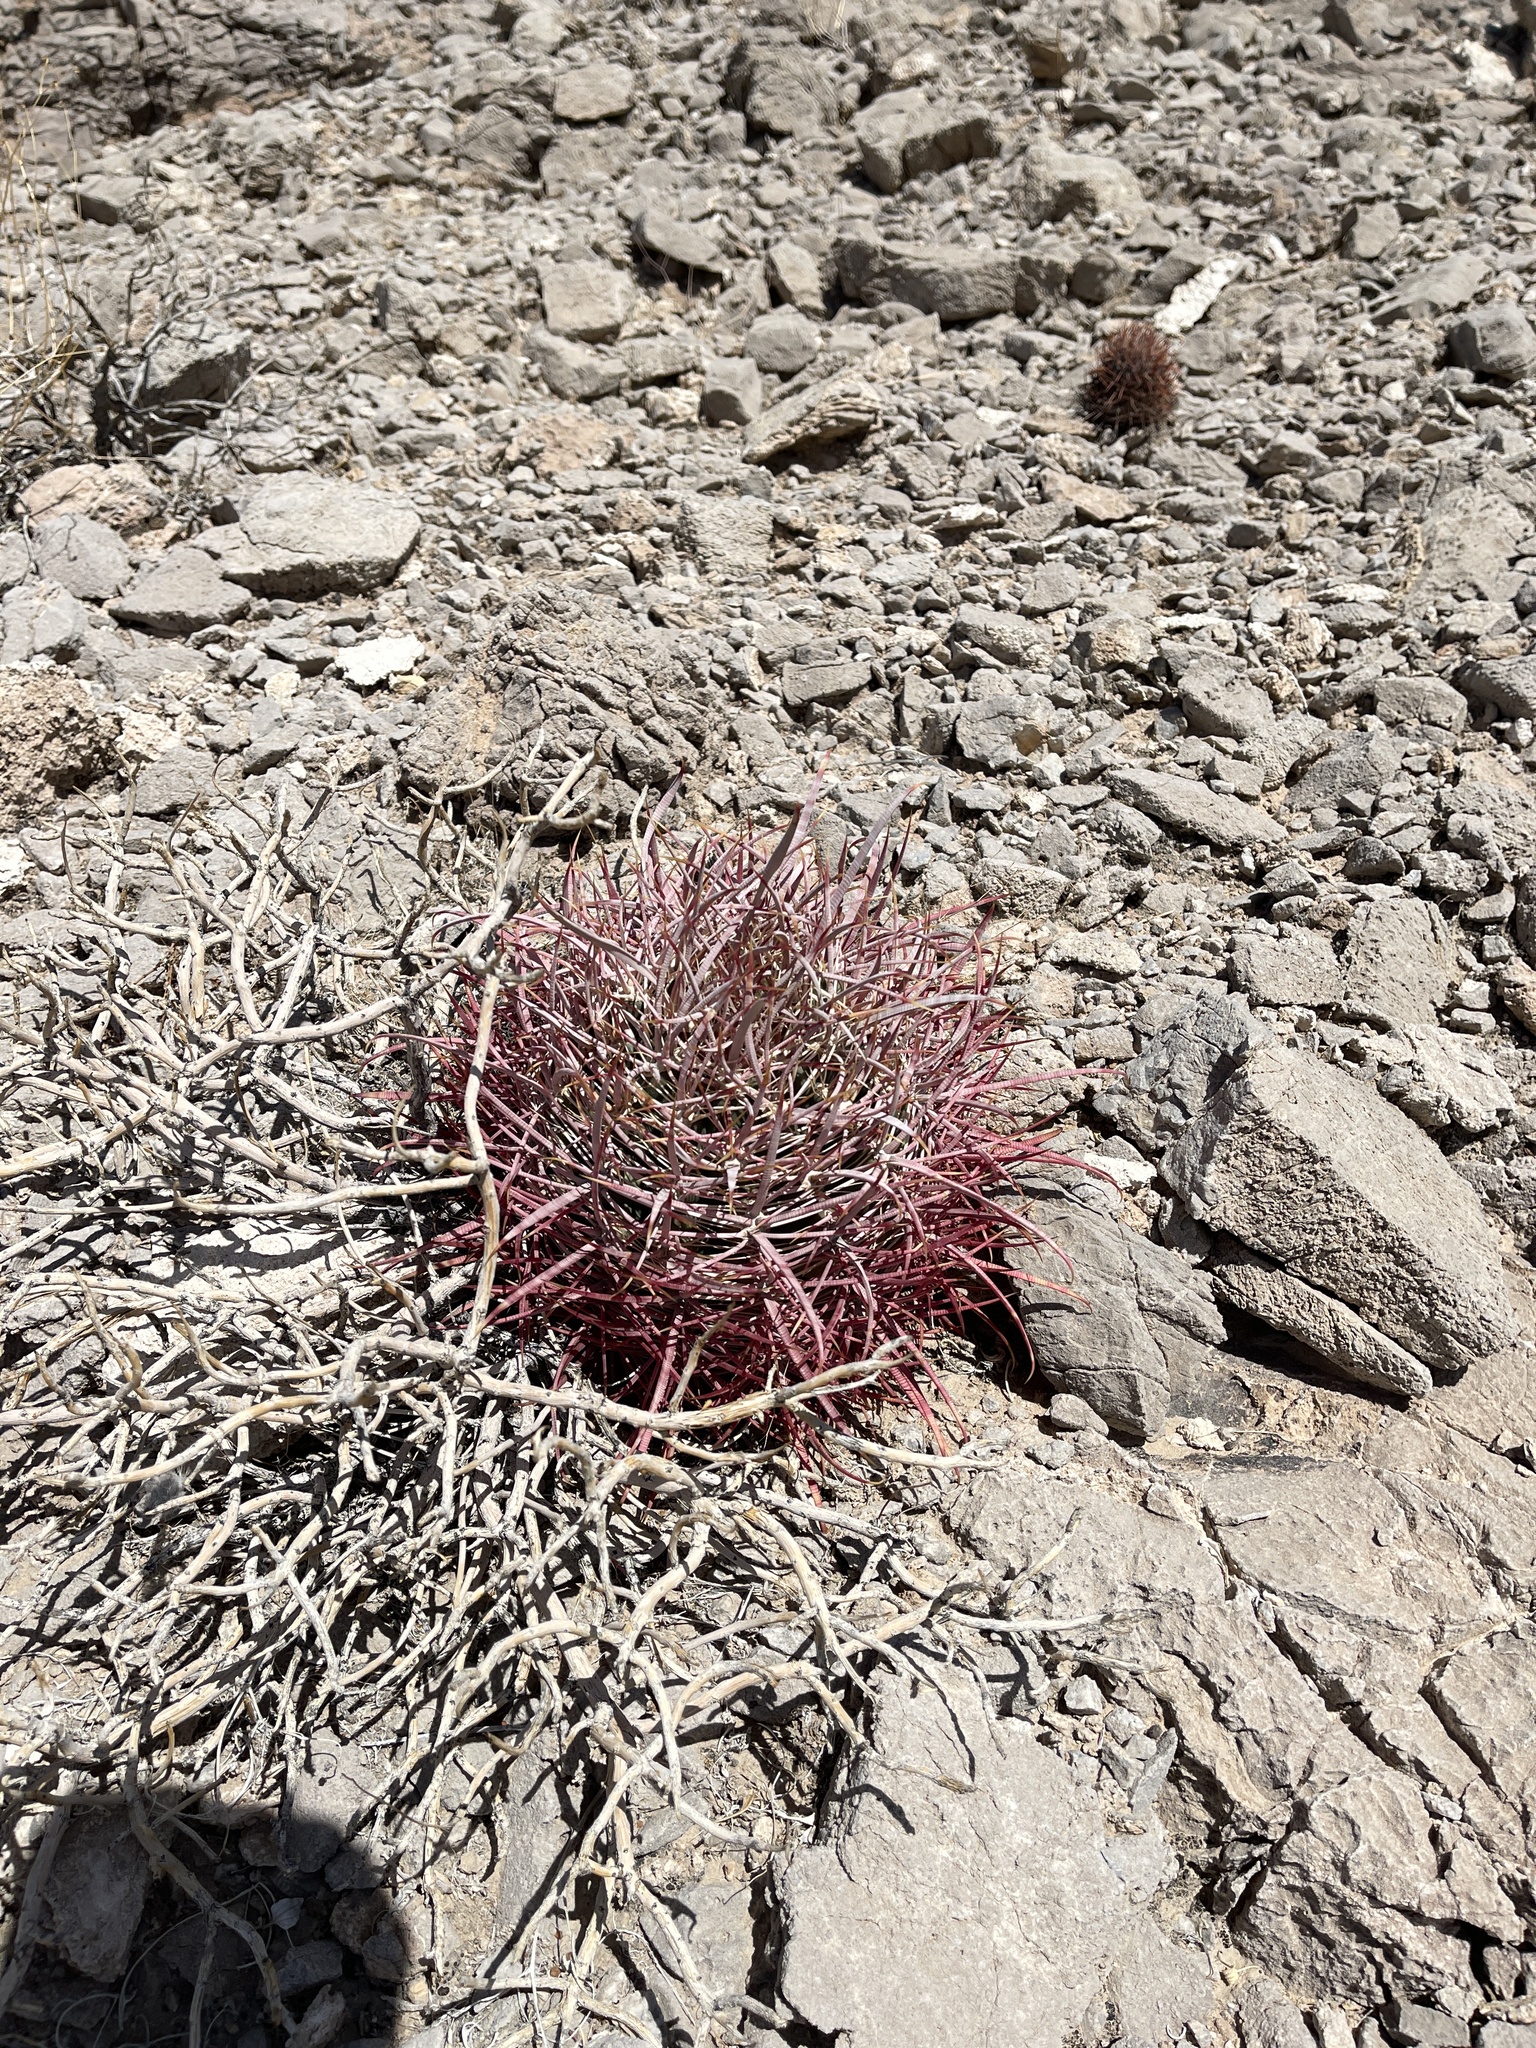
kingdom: Plantae
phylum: Tracheophyta
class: Magnoliopsida
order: Caryophyllales
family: Cactaceae
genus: Ferocactus
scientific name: Ferocactus cylindraceus
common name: California barrel cactus
